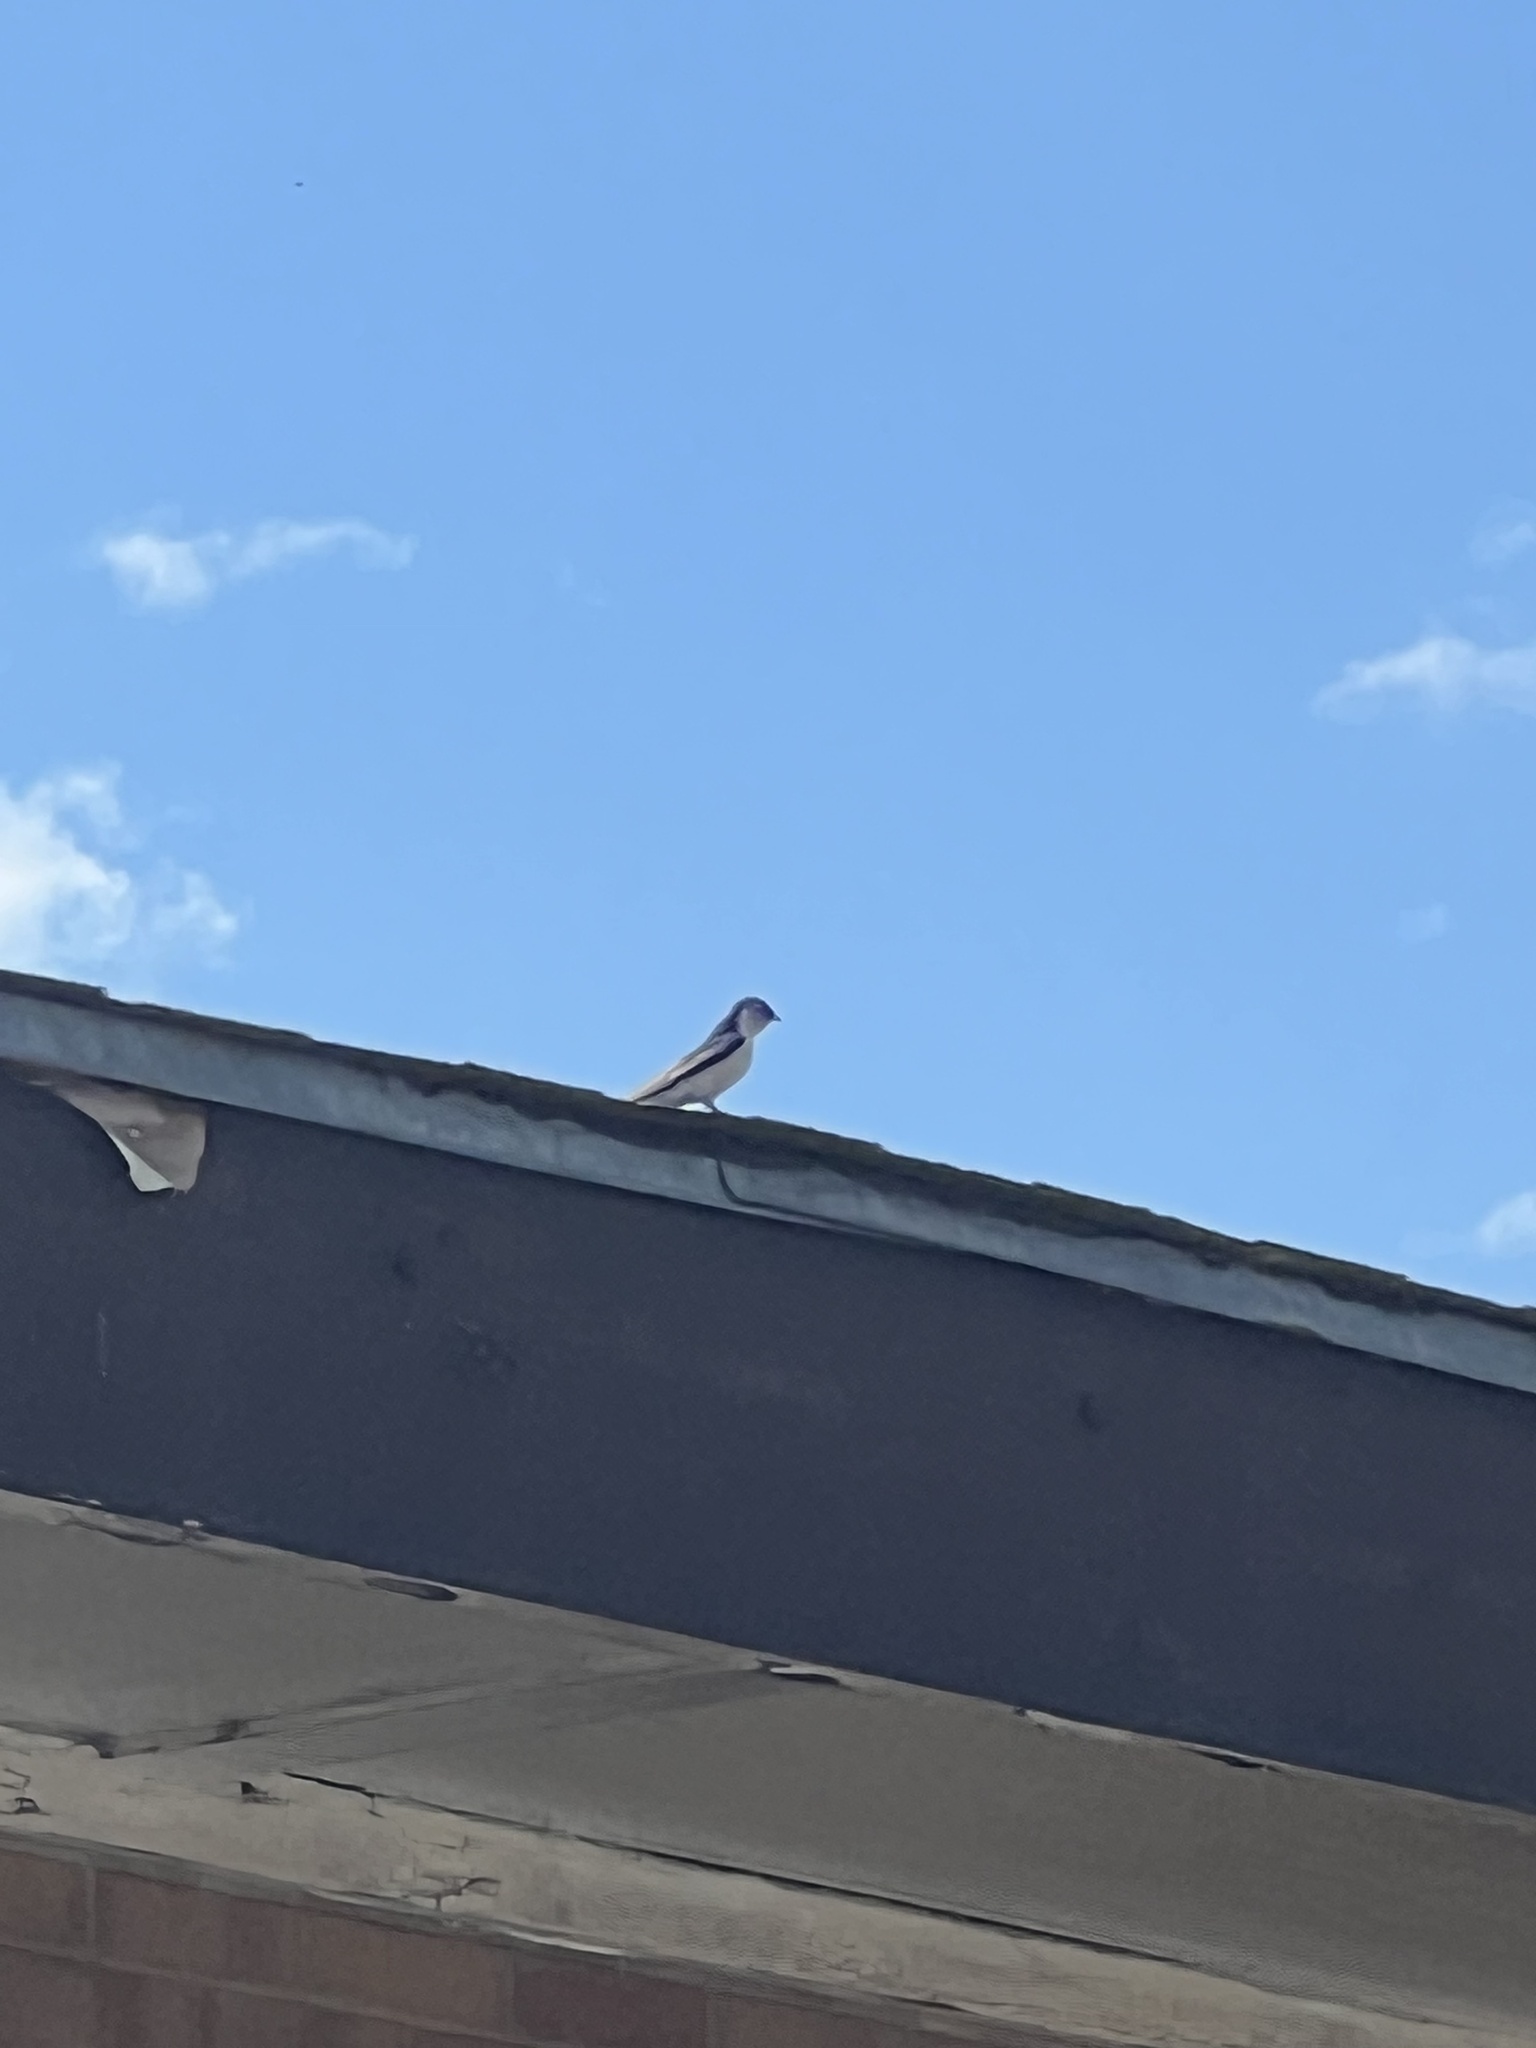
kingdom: Animalia
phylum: Chordata
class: Aves
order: Passeriformes
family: Hirundinidae
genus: Tachycineta
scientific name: Tachycineta thalassina
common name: Violet-green swallow
